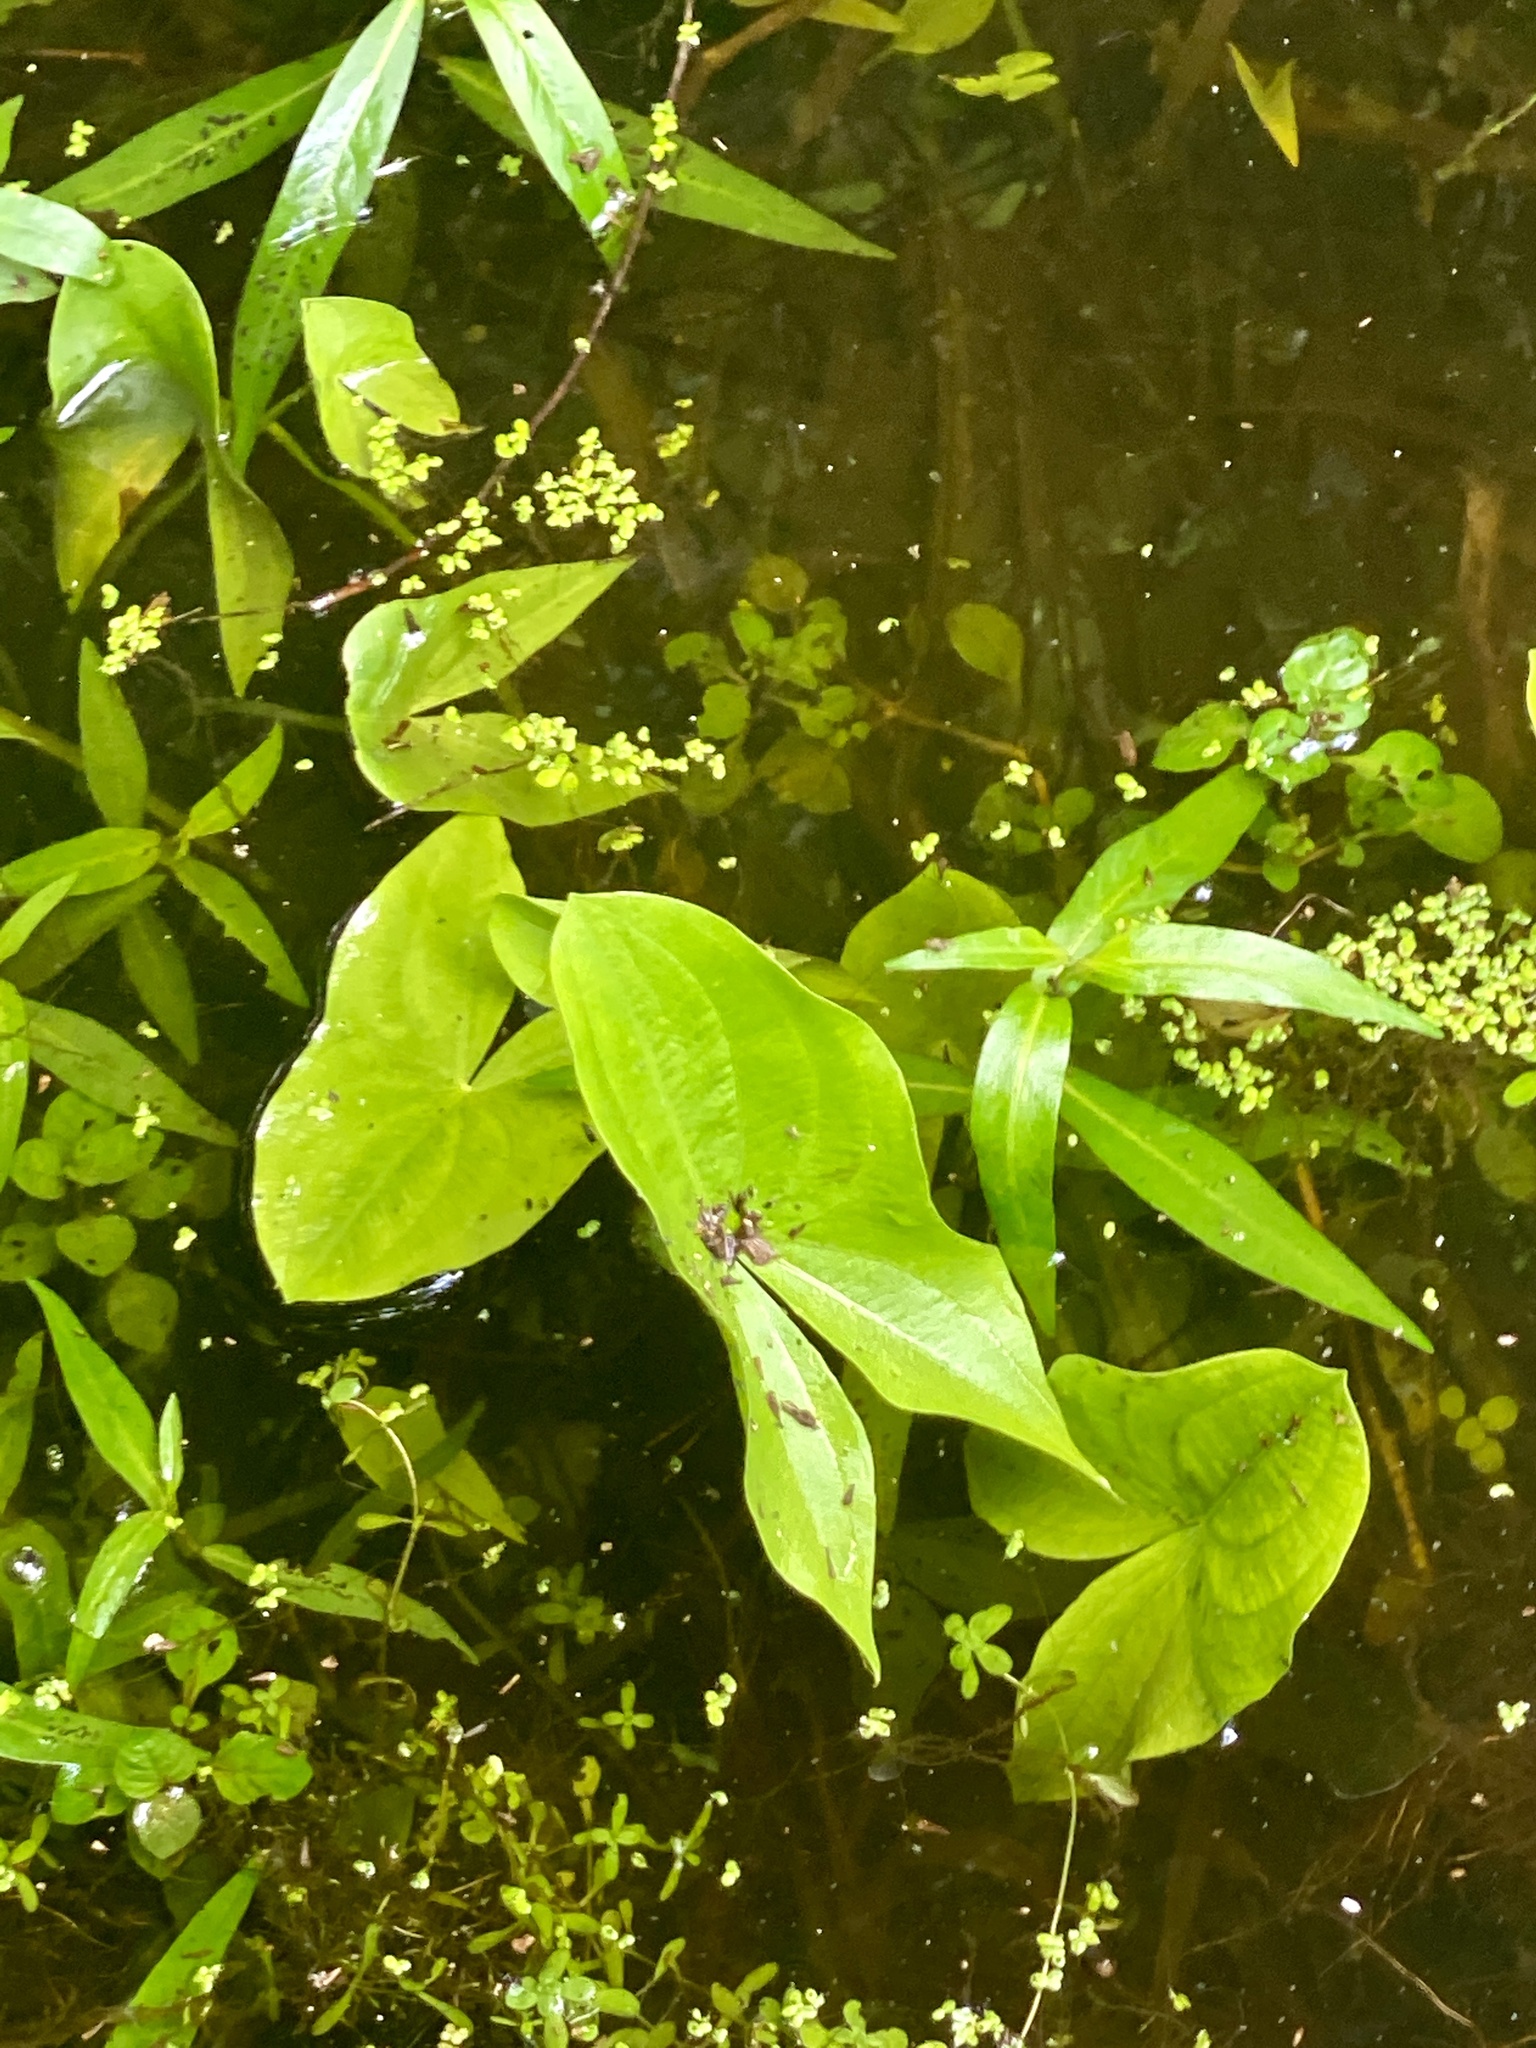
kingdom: Plantae
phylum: Tracheophyta
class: Liliopsida
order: Alismatales
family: Alismataceae
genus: Sagittaria
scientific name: Sagittaria latifolia
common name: Duck-potato
